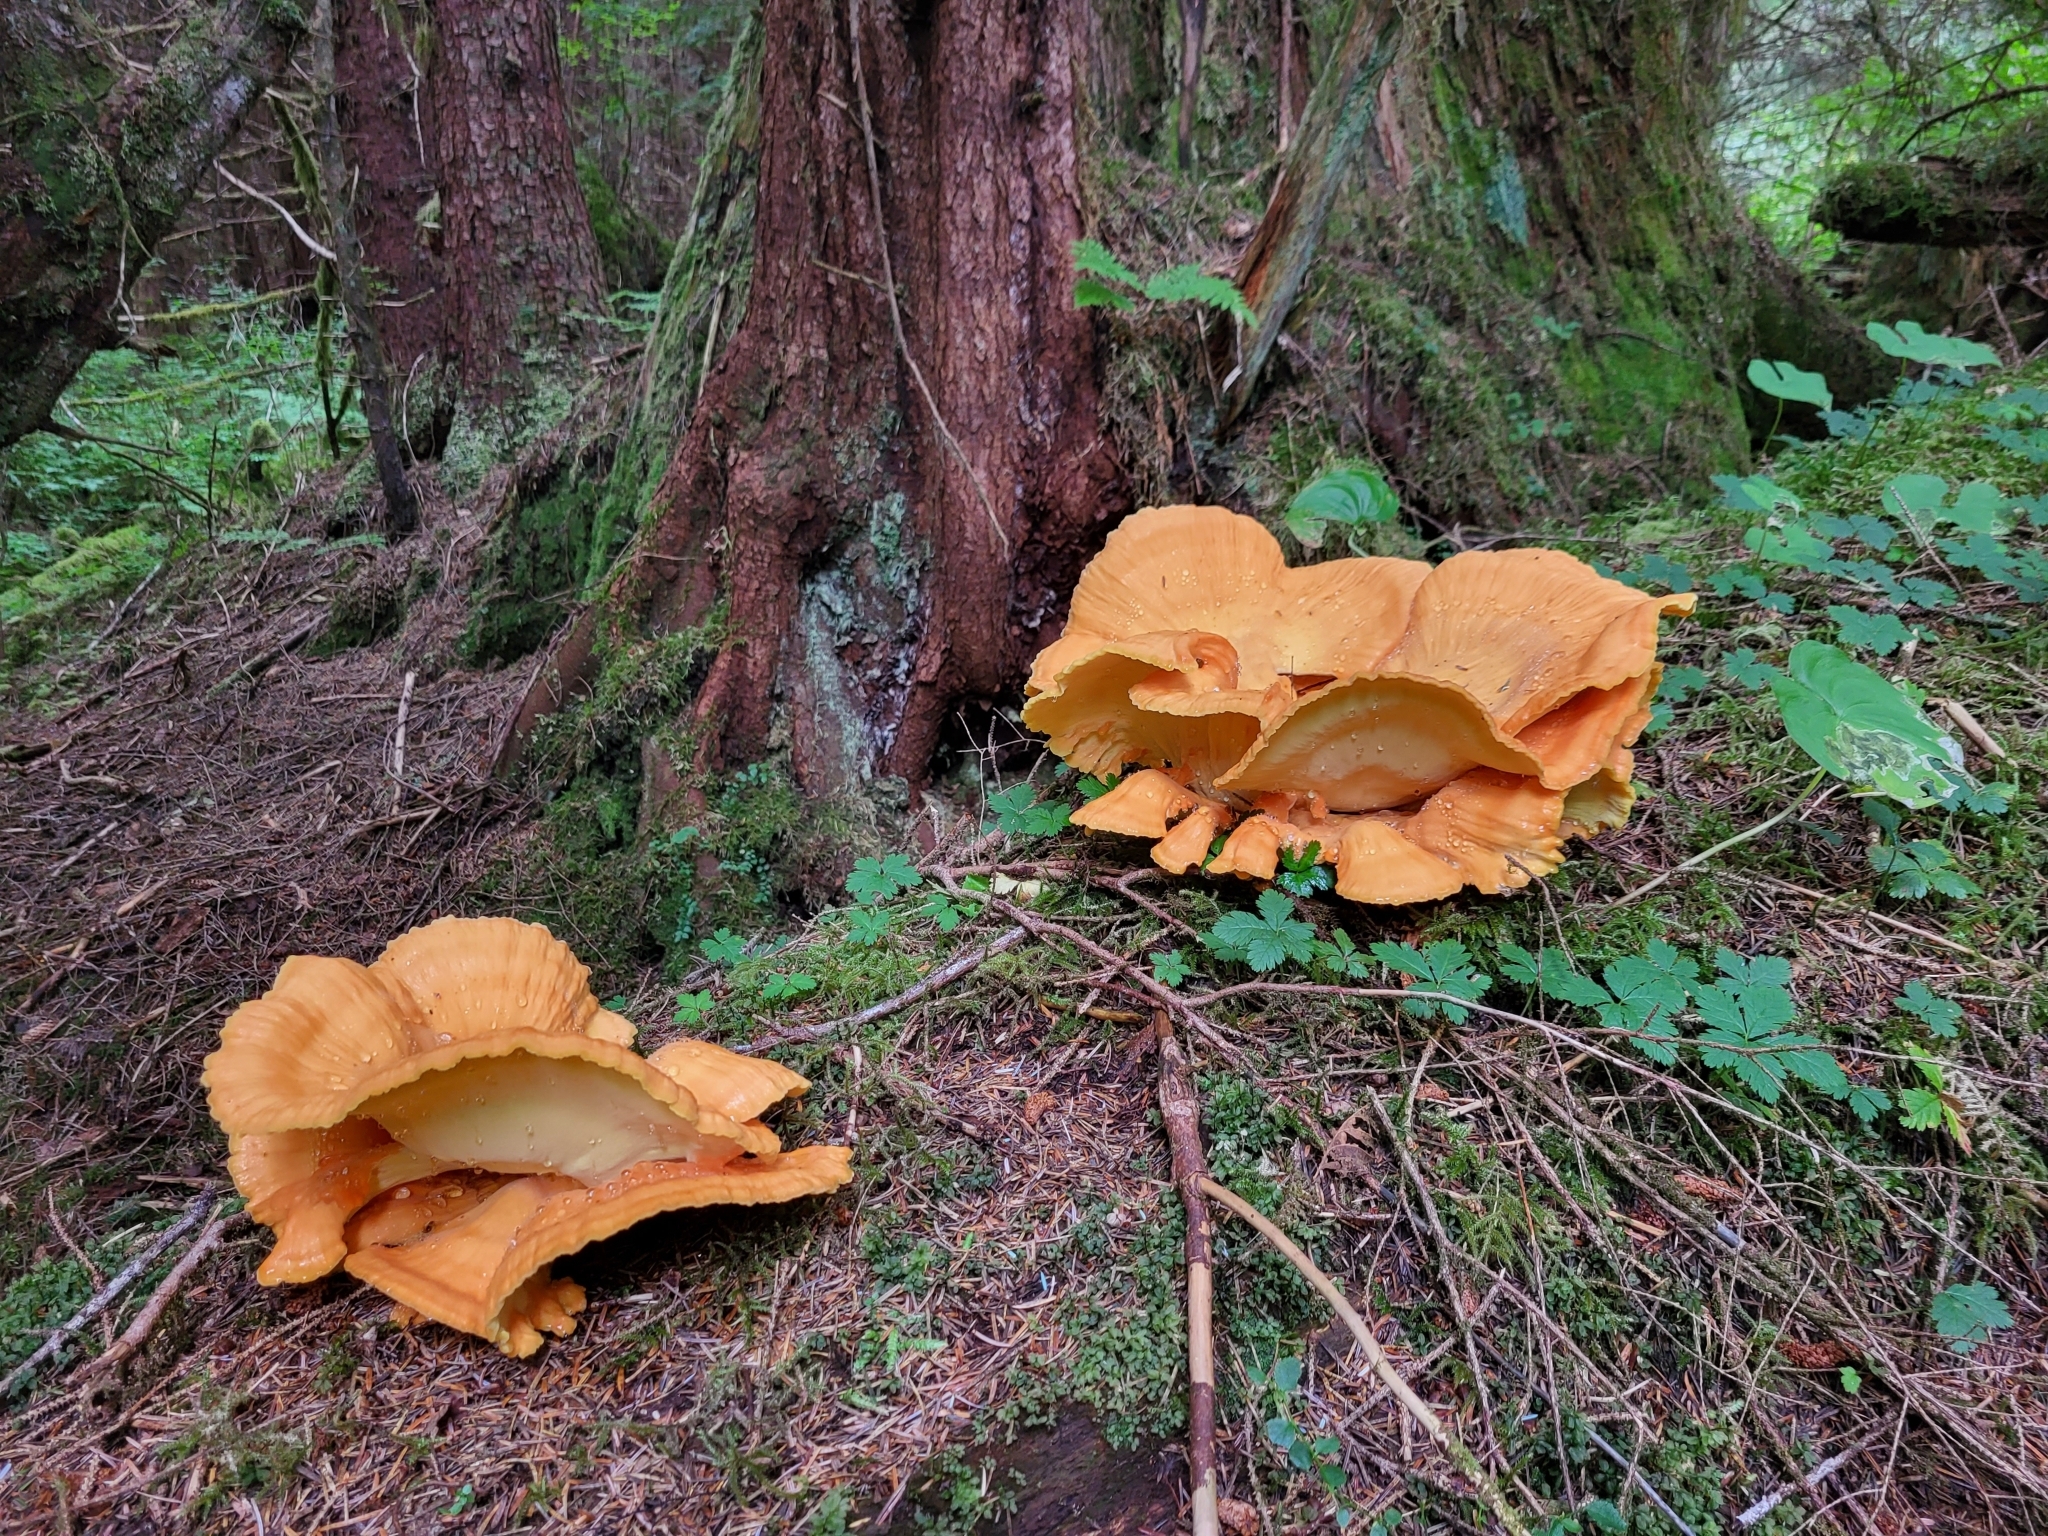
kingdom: Fungi
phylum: Basidiomycota
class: Agaricomycetes
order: Polyporales
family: Laetiporaceae
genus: Laetiporus
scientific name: Laetiporus conifericola
